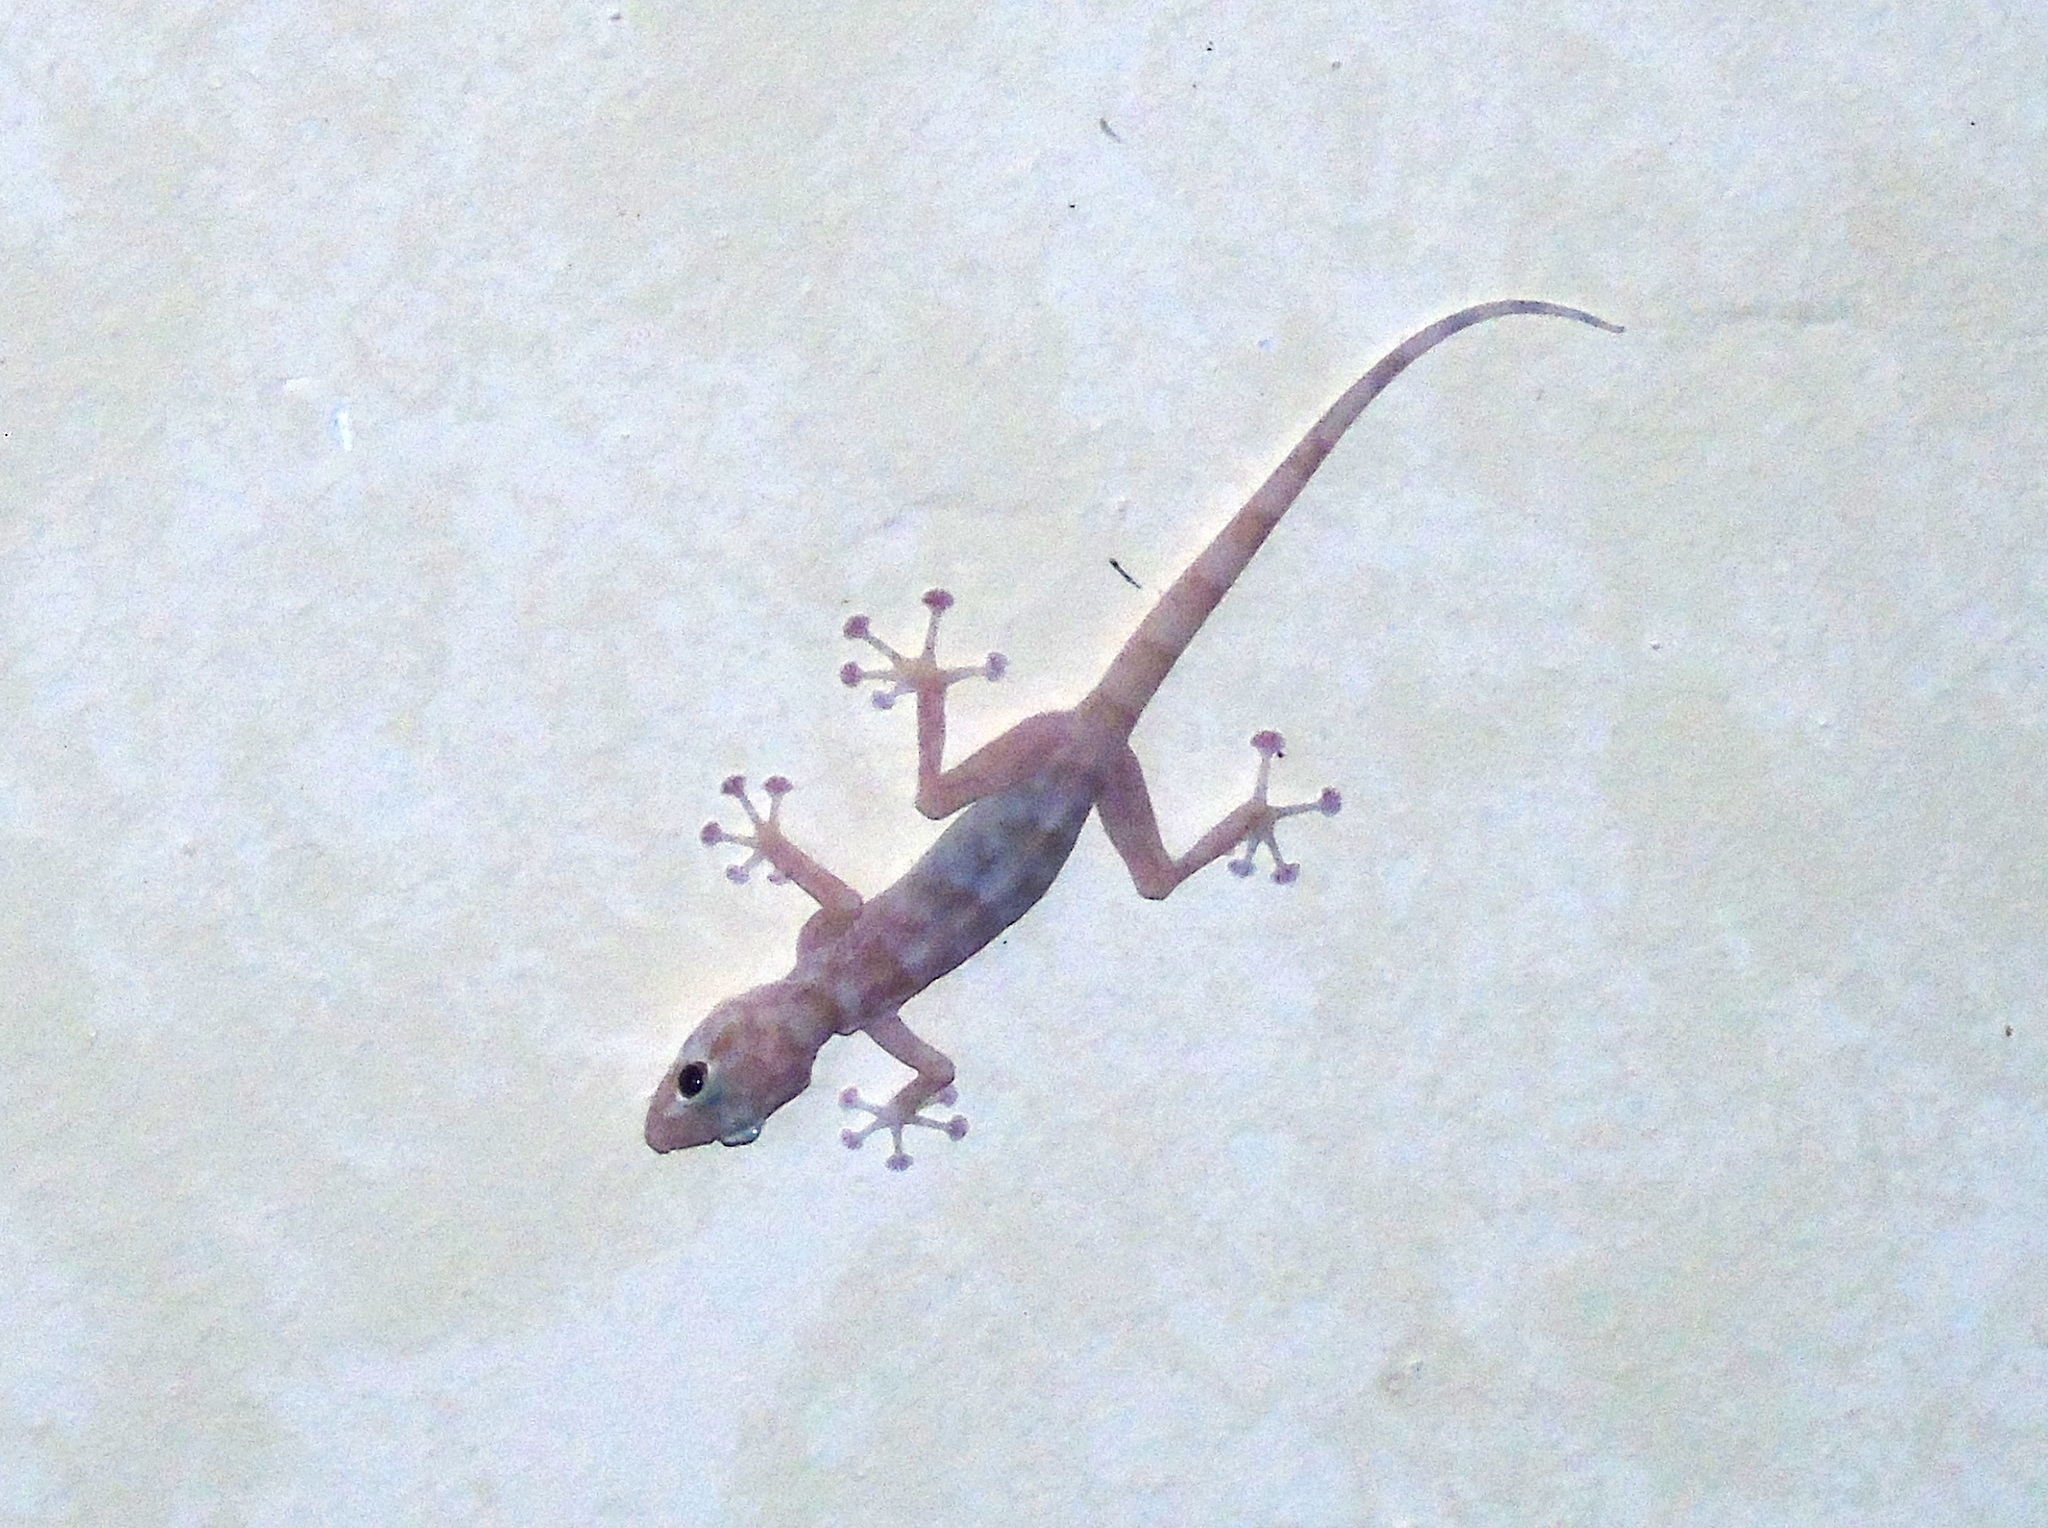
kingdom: Animalia
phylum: Chordata
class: Squamata
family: Phyllodactylidae
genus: Ptyodactylus
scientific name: Ptyodactylus hasselquistii
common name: Hasselquist’s fan-footed gecko
